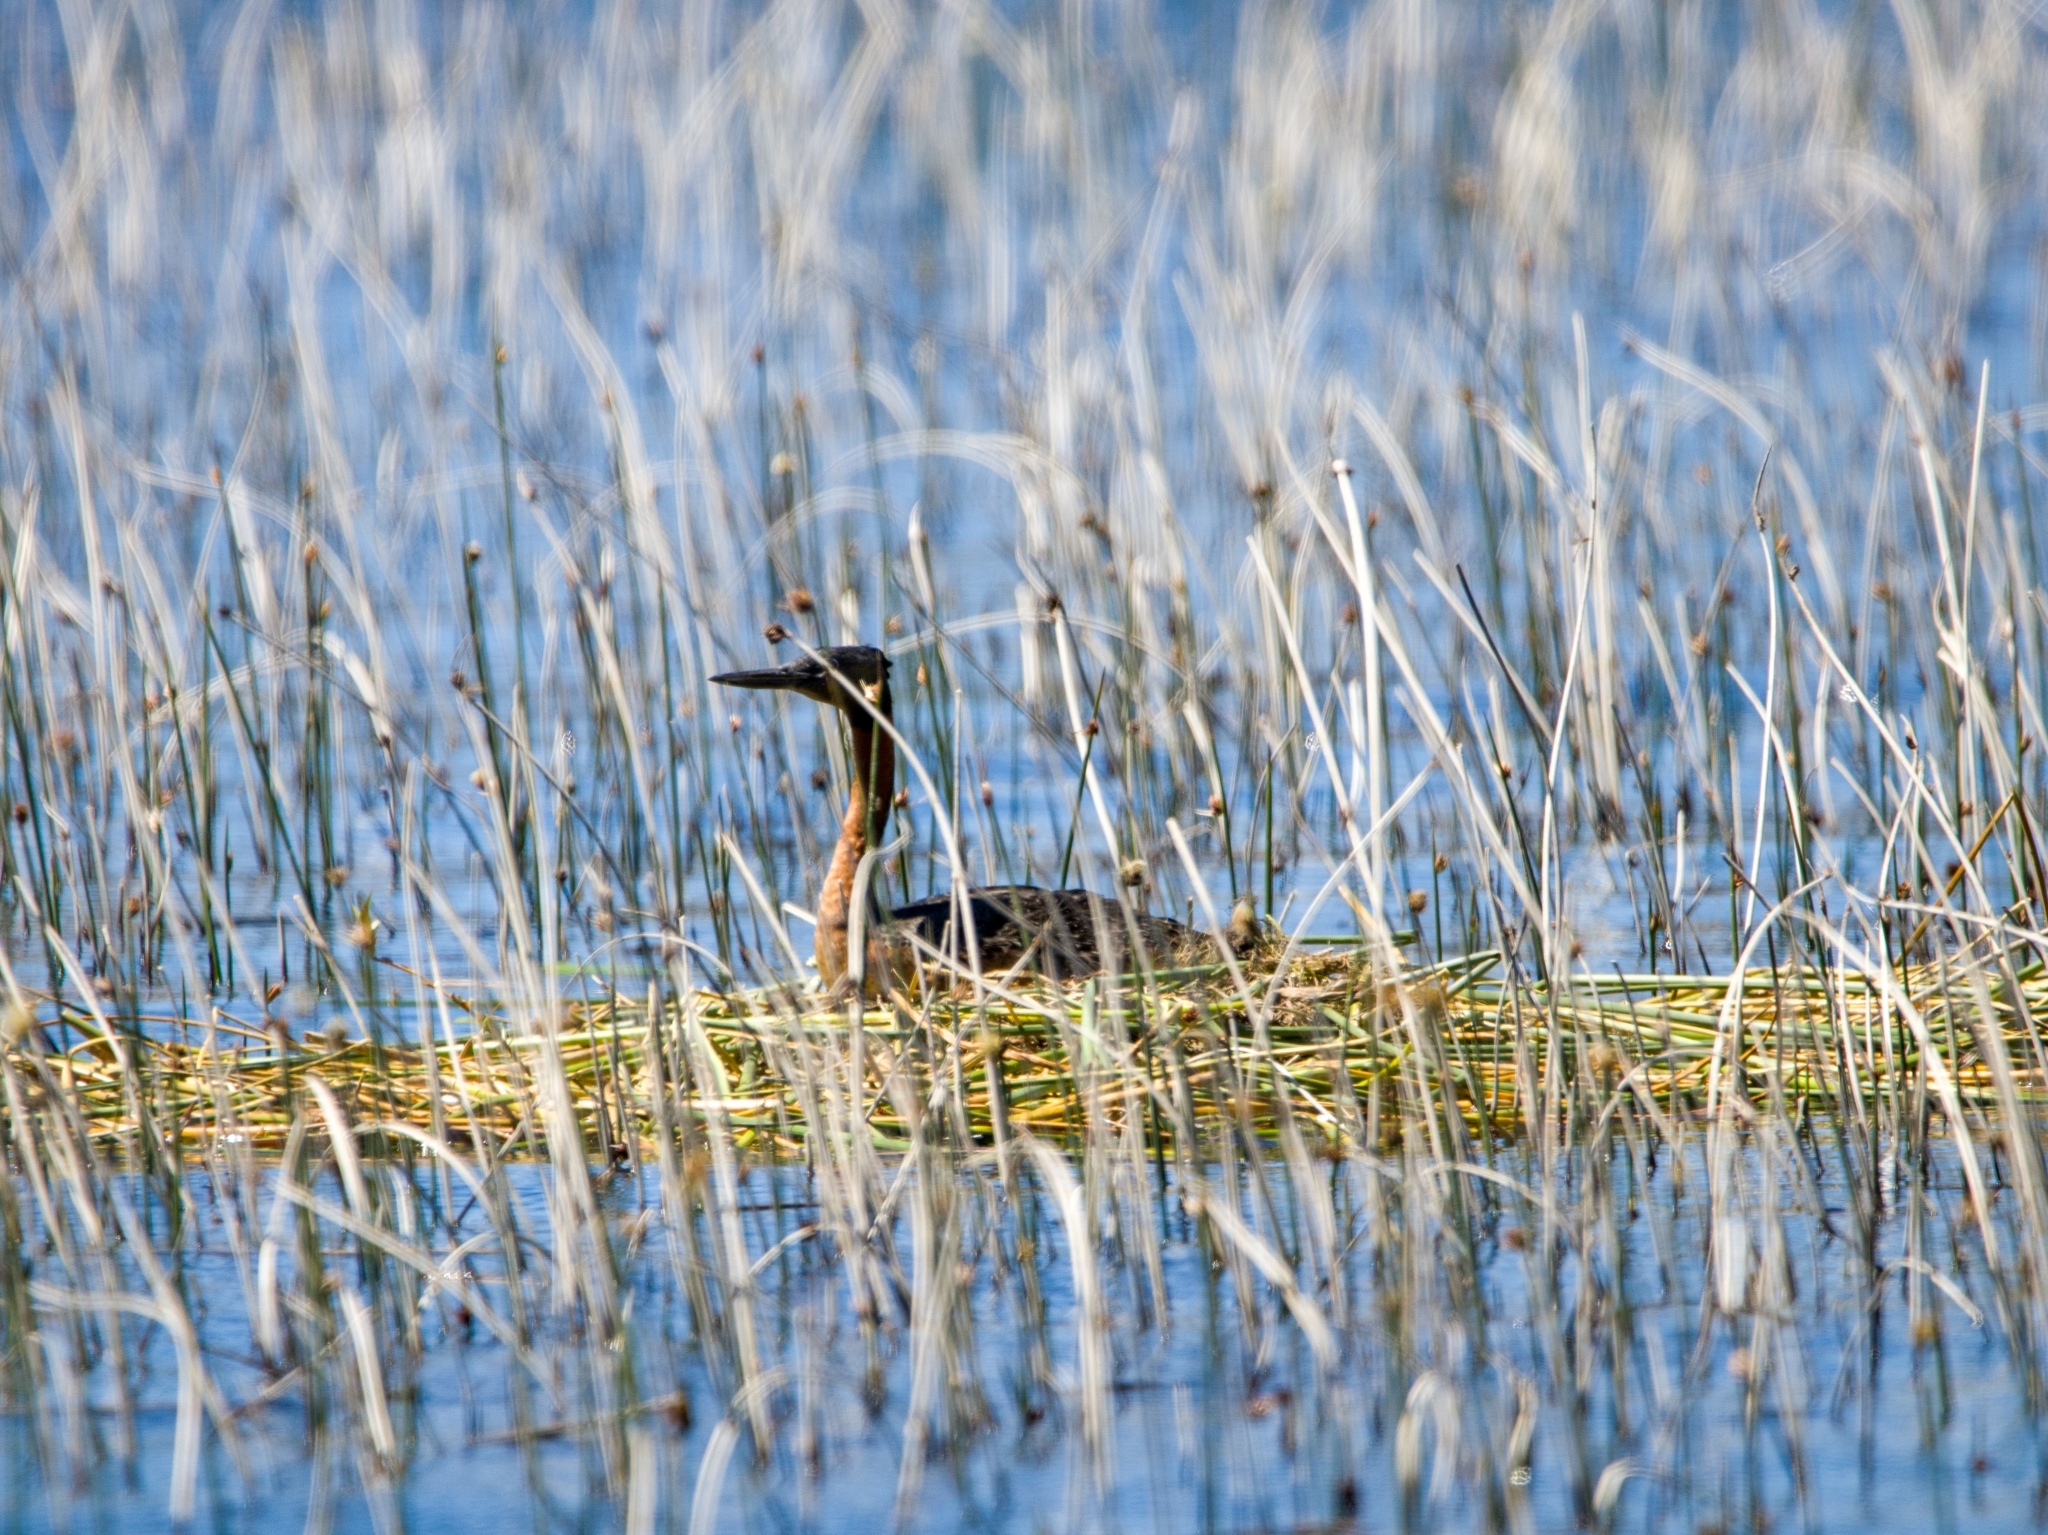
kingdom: Animalia
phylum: Chordata
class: Aves
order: Podicipediformes
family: Podicipedidae
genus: Podiceps
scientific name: Podiceps major
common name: Great grebe
